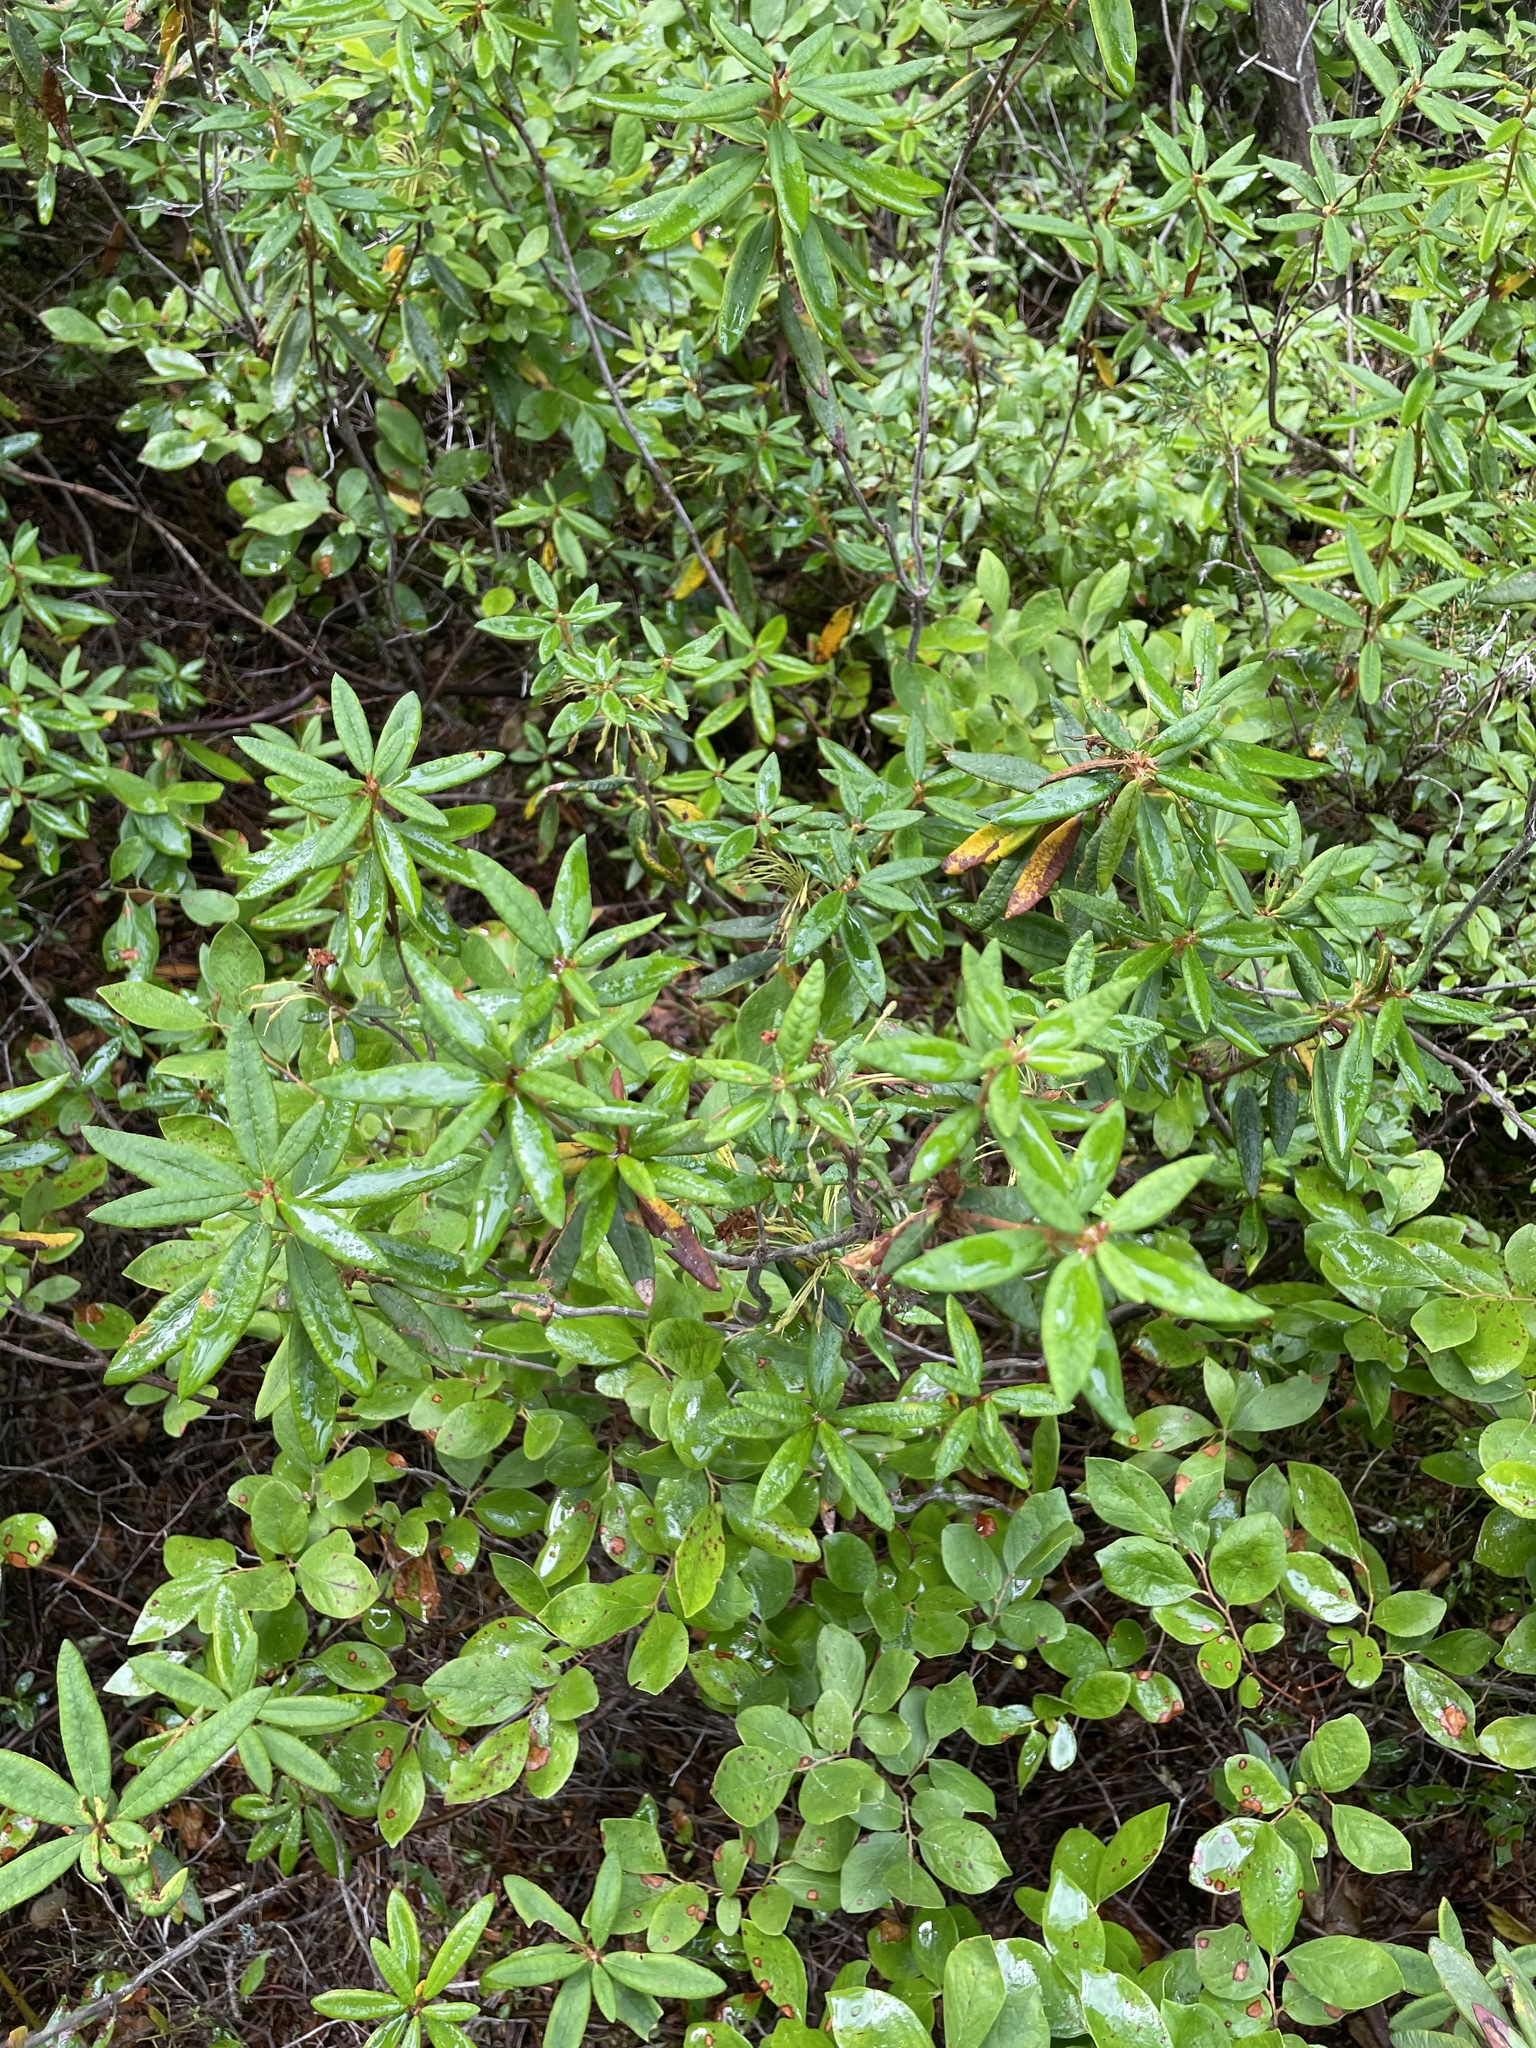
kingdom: Plantae
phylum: Tracheophyta
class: Magnoliopsida
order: Ericales
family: Ericaceae
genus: Rhododendron
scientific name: Rhododendron groenlandicum
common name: Bog labrador tea
